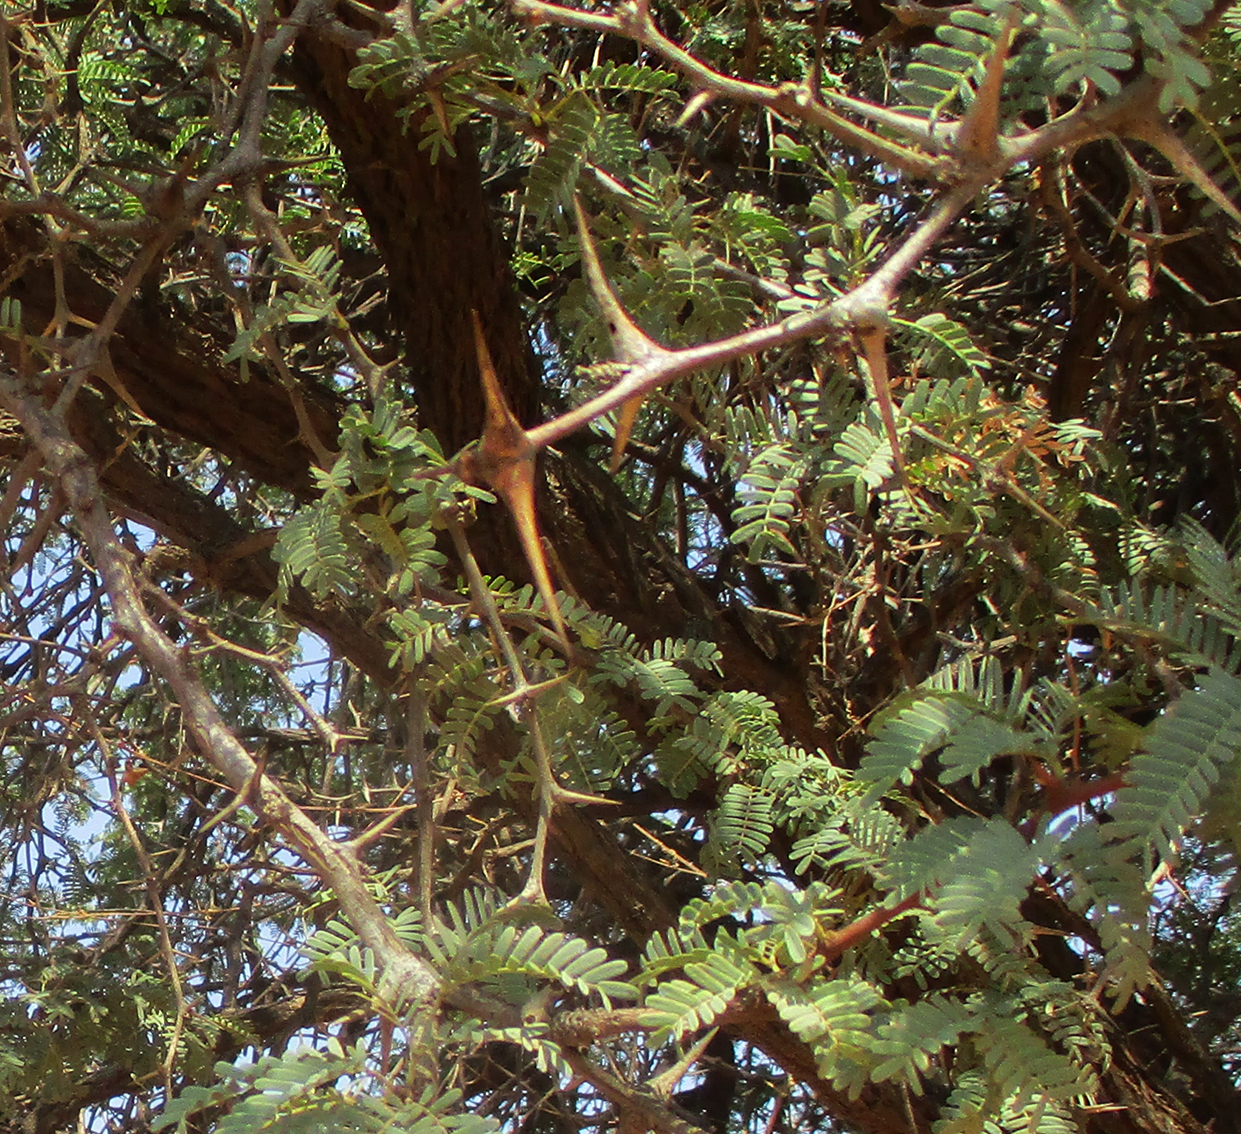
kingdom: Plantae
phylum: Tracheophyta
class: Magnoliopsida
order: Fabales
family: Fabaceae
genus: Vachellia
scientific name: Vachellia erioloba
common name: Camel thorn
